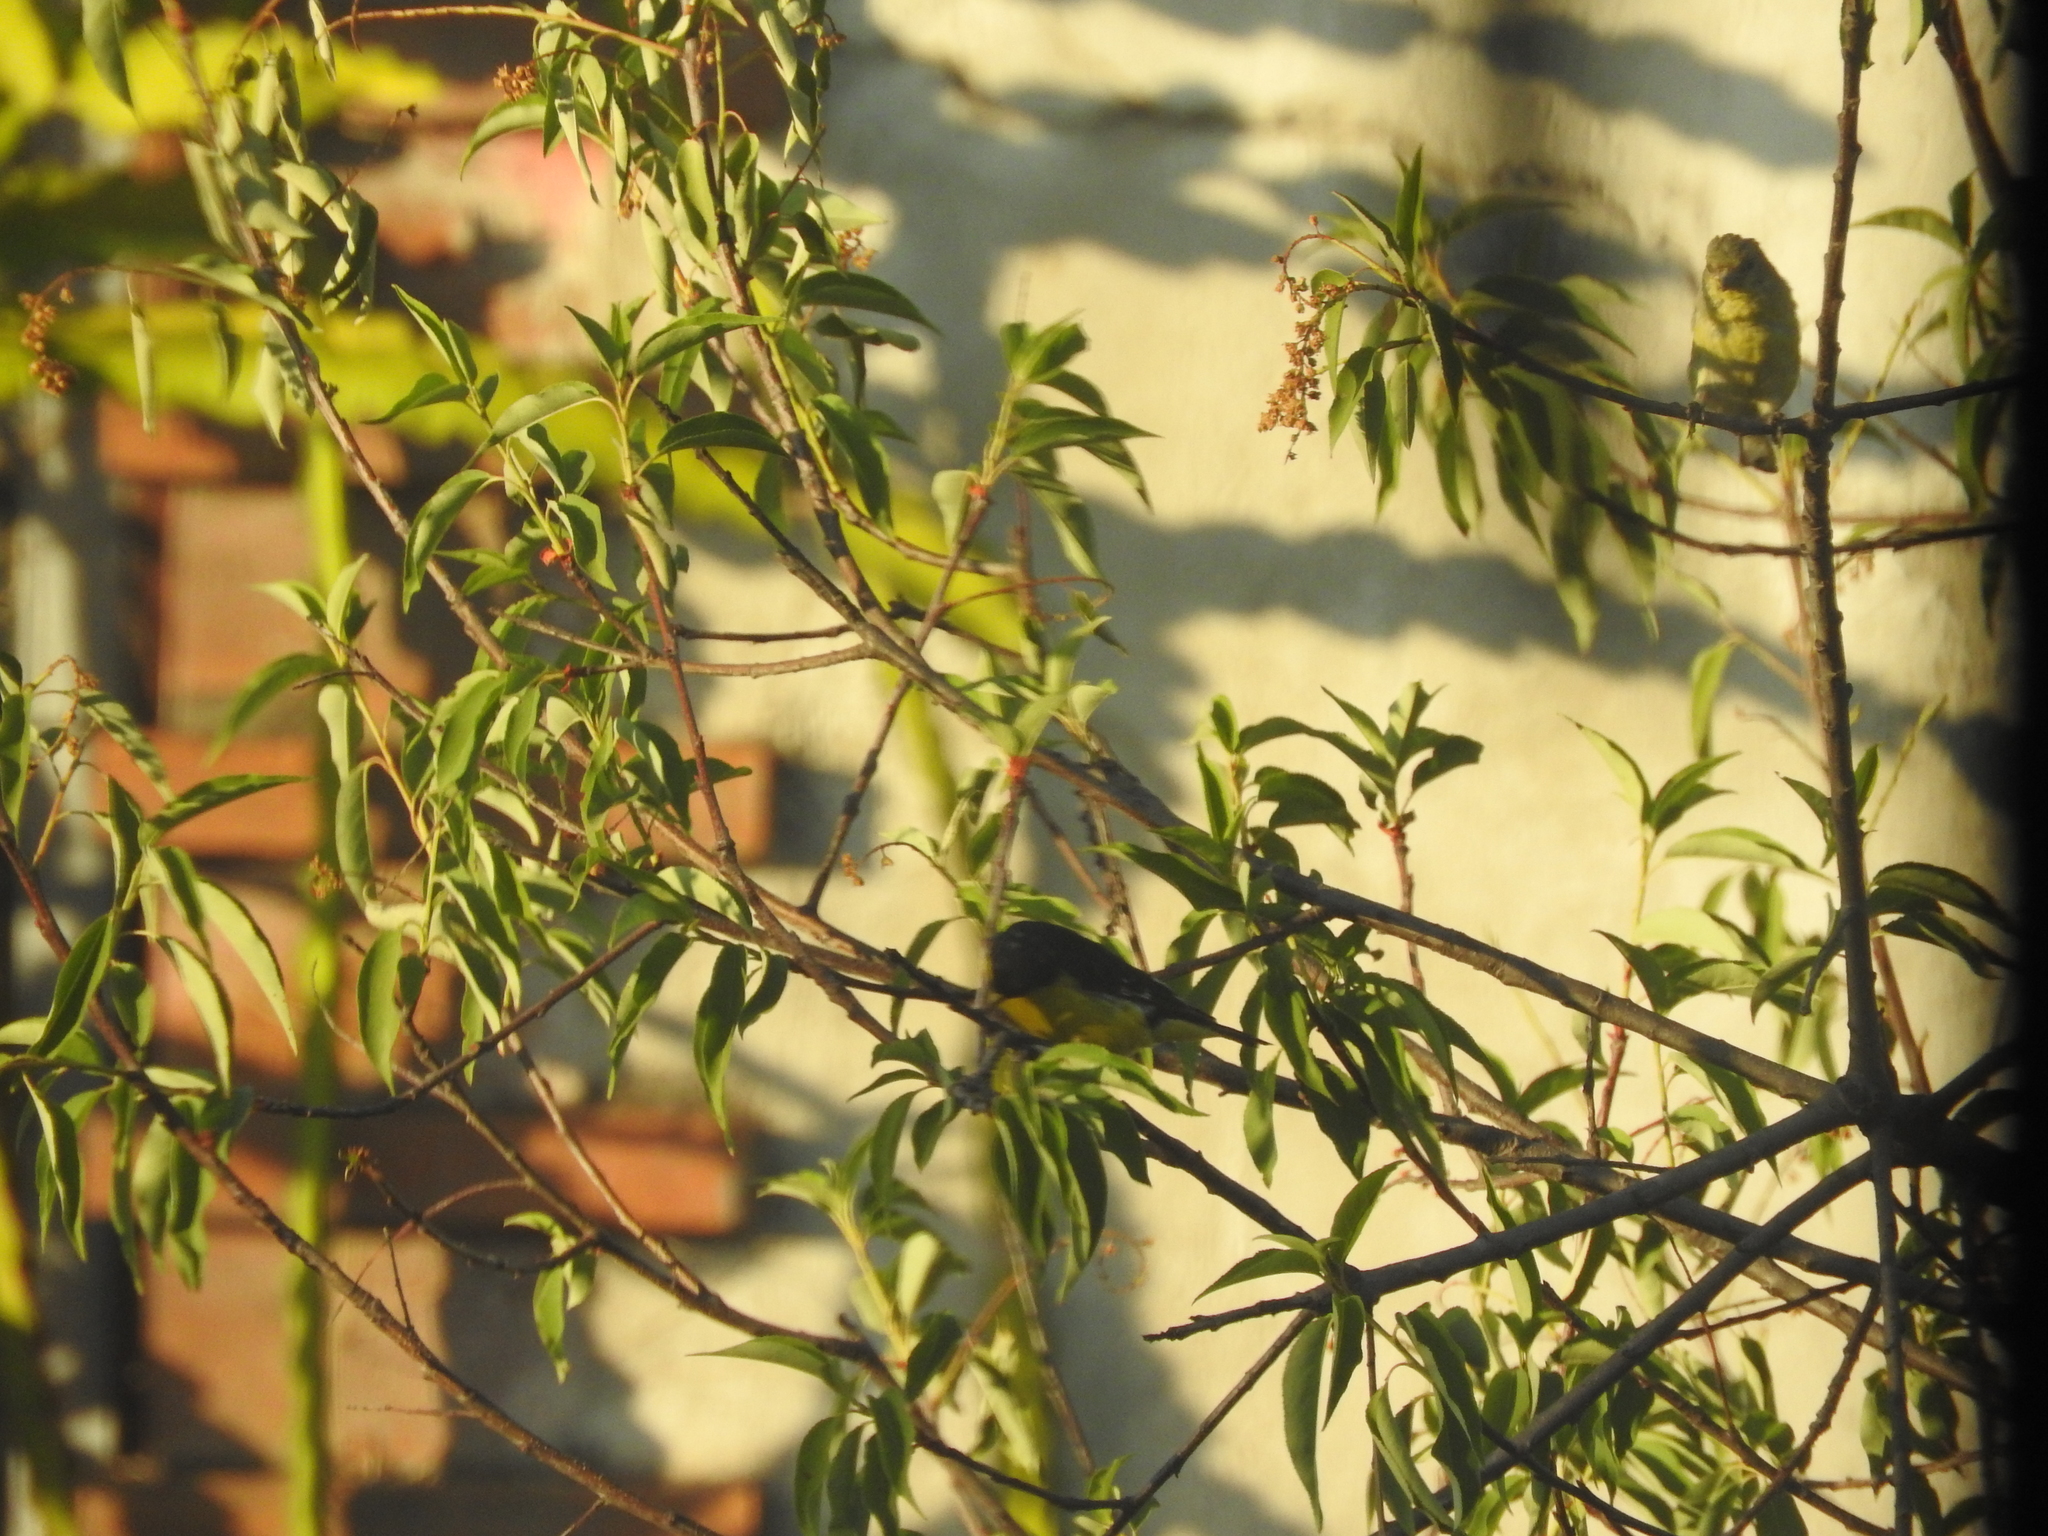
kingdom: Animalia
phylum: Chordata
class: Aves
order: Passeriformes
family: Fringillidae
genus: Spinus
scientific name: Spinus psaltria
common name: Lesser goldfinch
